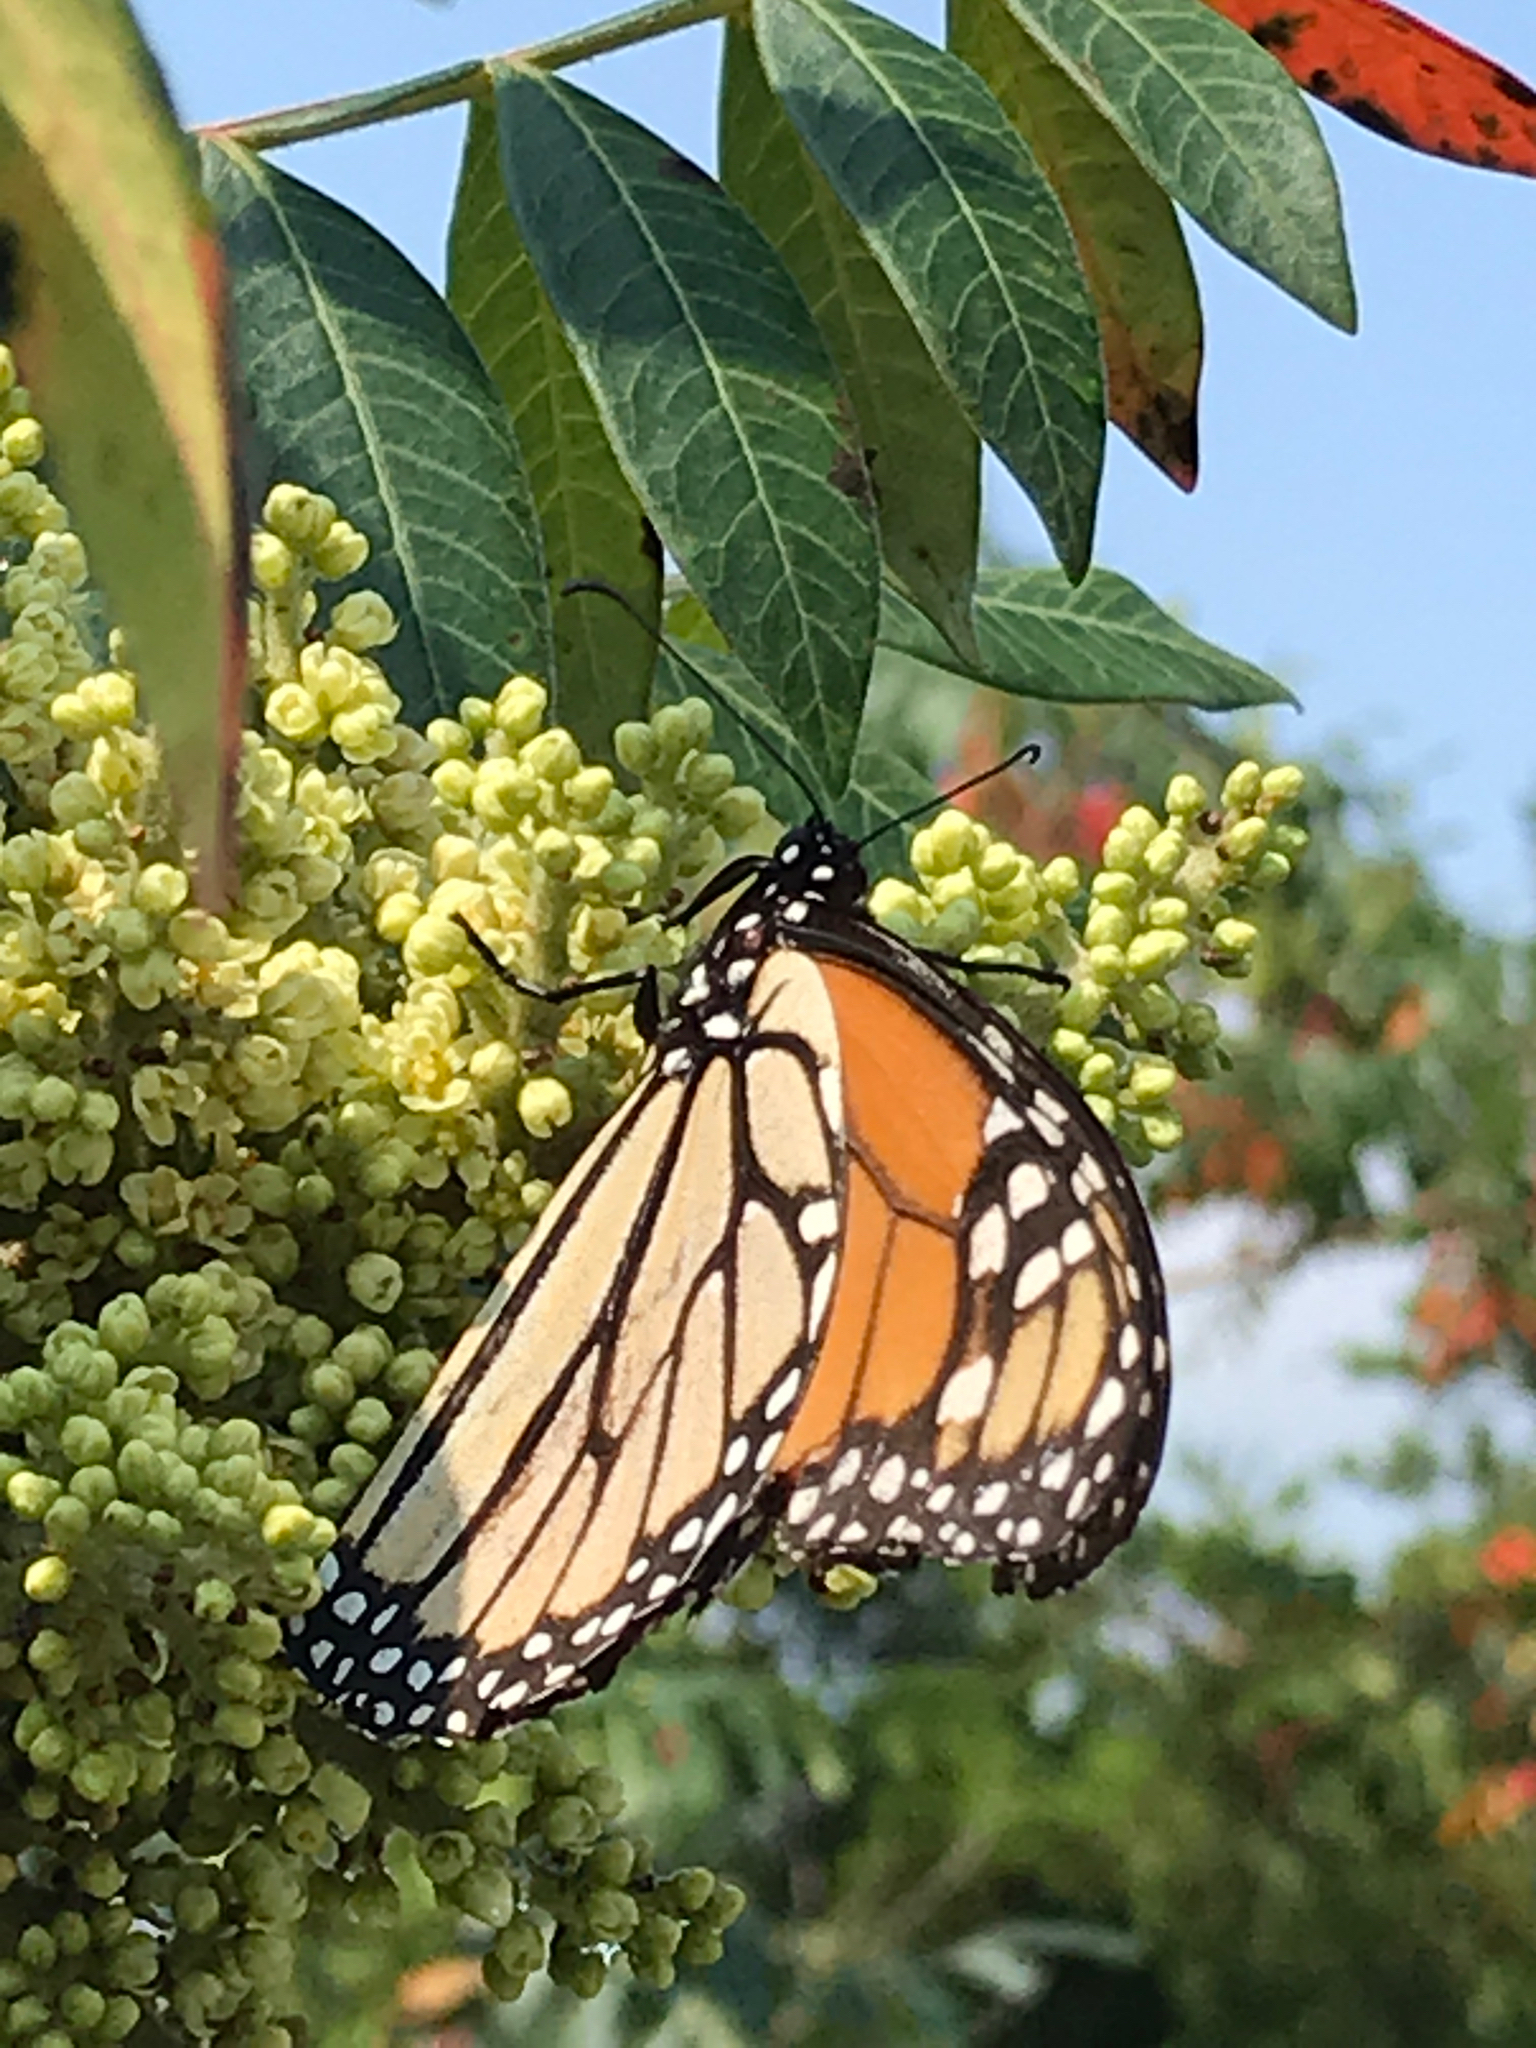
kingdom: Animalia
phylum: Arthropoda
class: Insecta
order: Lepidoptera
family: Nymphalidae
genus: Danaus
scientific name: Danaus plexippus
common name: Monarch
